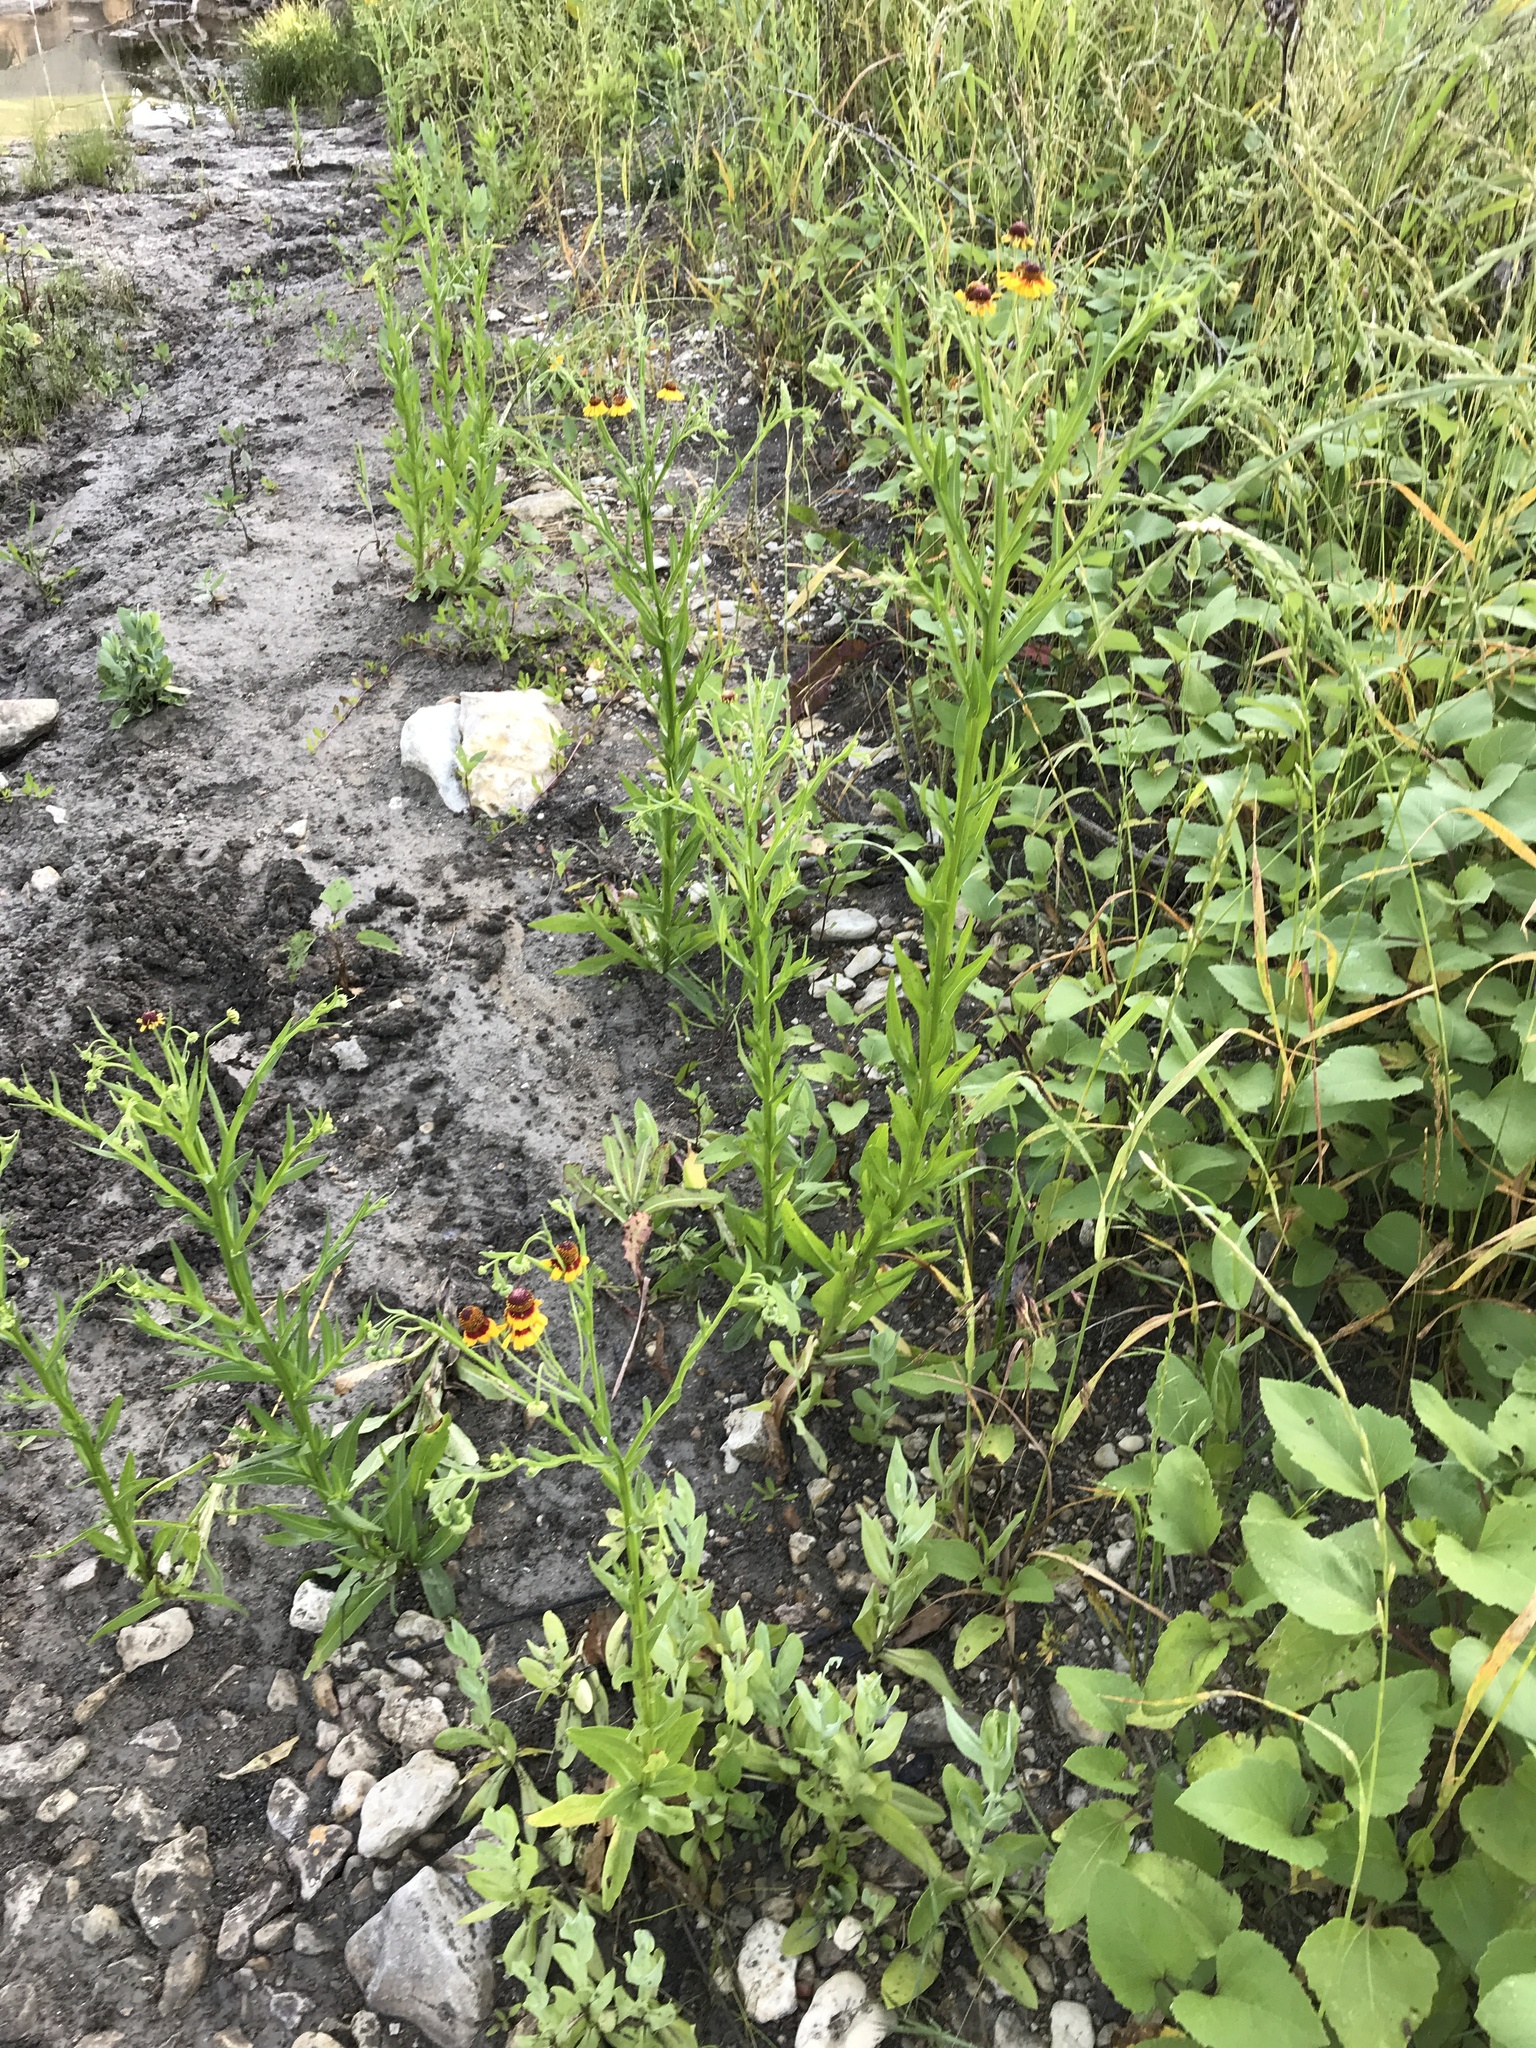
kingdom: Plantae
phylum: Tracheophyta
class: Magnoliopsida
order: Asterales
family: Asteraceae
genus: Helenium
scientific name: Helenium elegans
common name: Pretty sneezeweed
